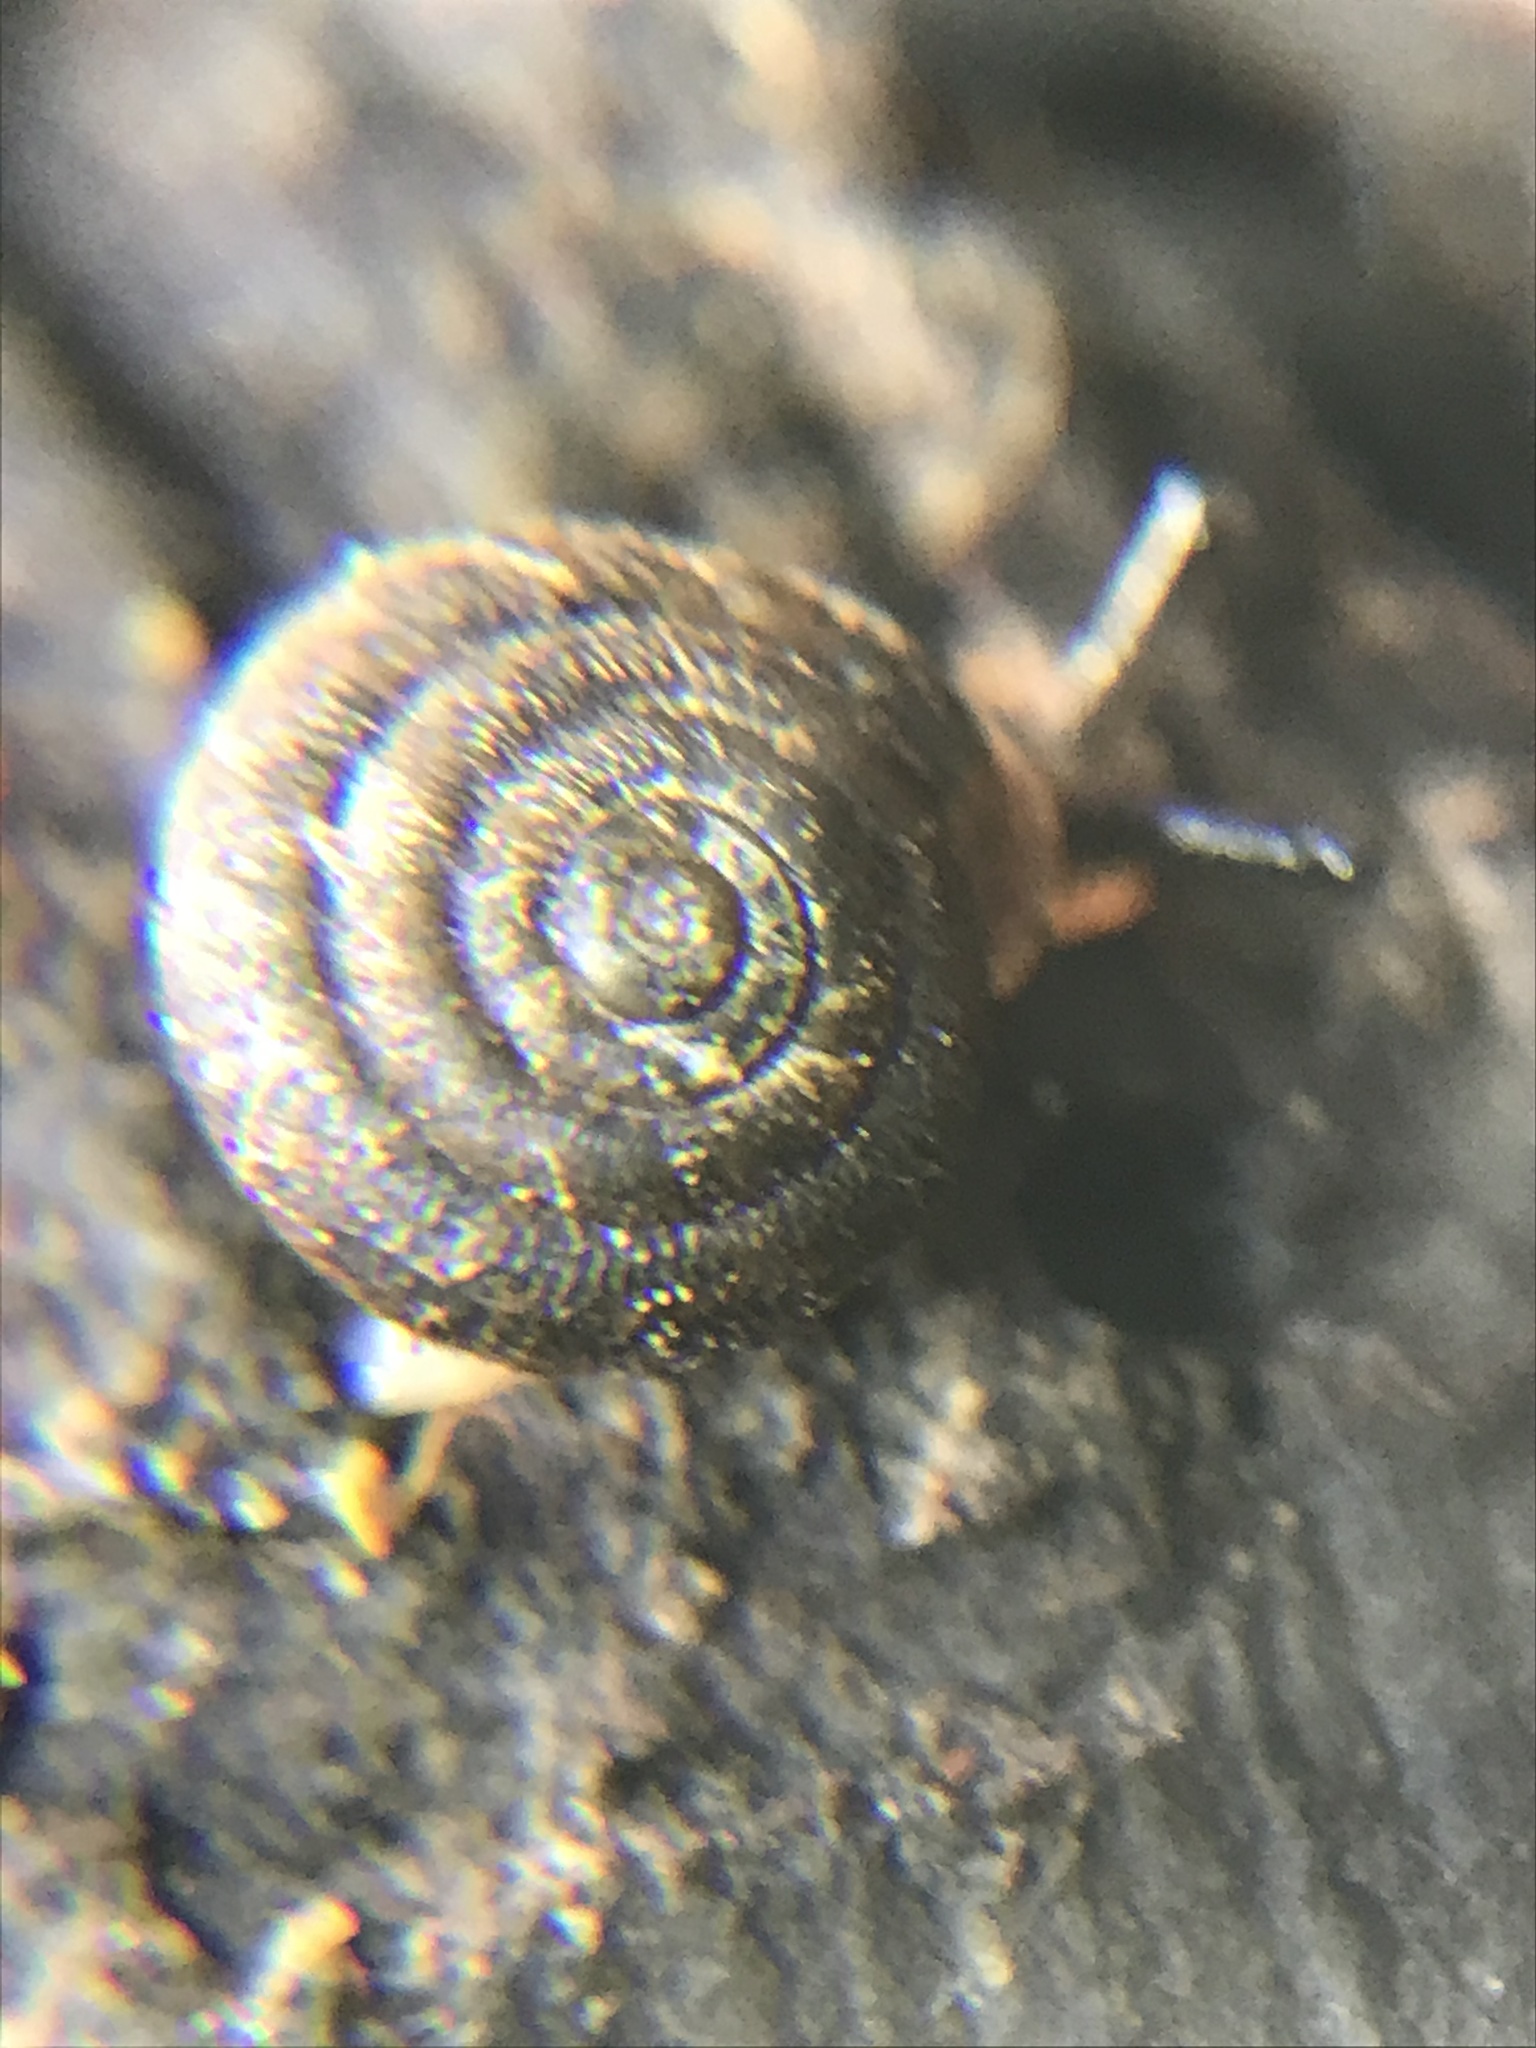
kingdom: Animalia
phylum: Mollusca
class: Gastropoda
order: Stylommatophora
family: Polygyridae
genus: Trilobopsis
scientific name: Trilobopsis loricata
